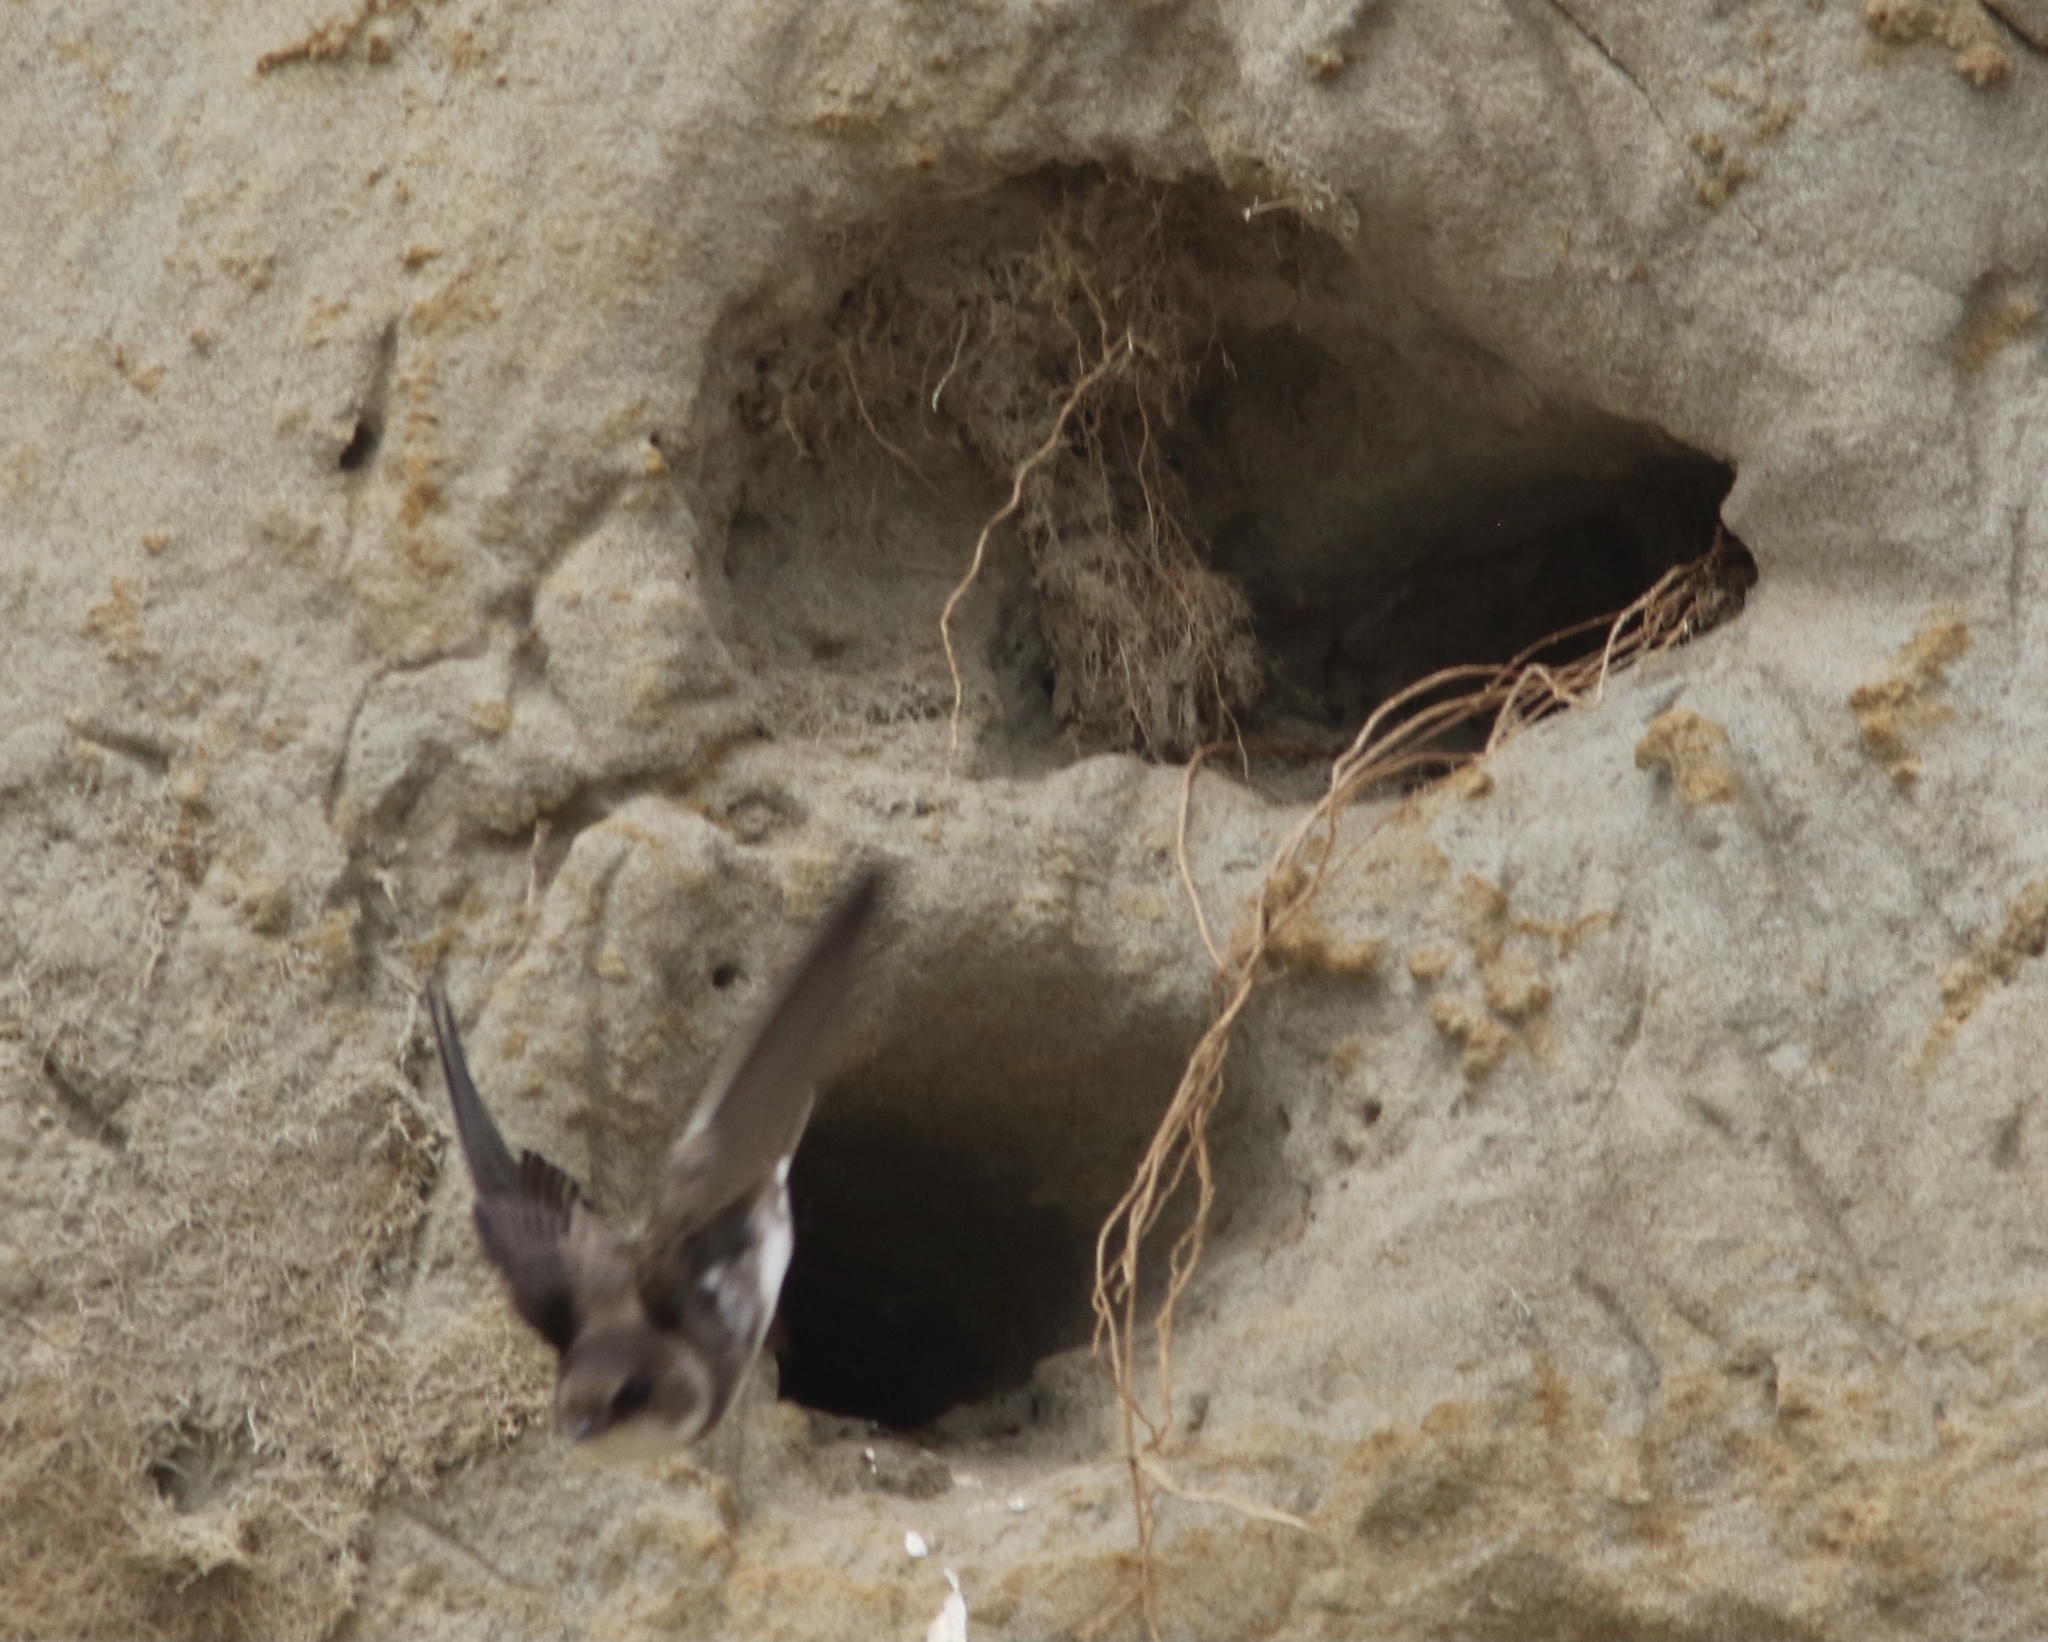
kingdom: Animalia
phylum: Chordata
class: Aves
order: Passeriformes
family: Hirundinidae
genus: Riparia
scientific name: Riparia riparia
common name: Sand martin
